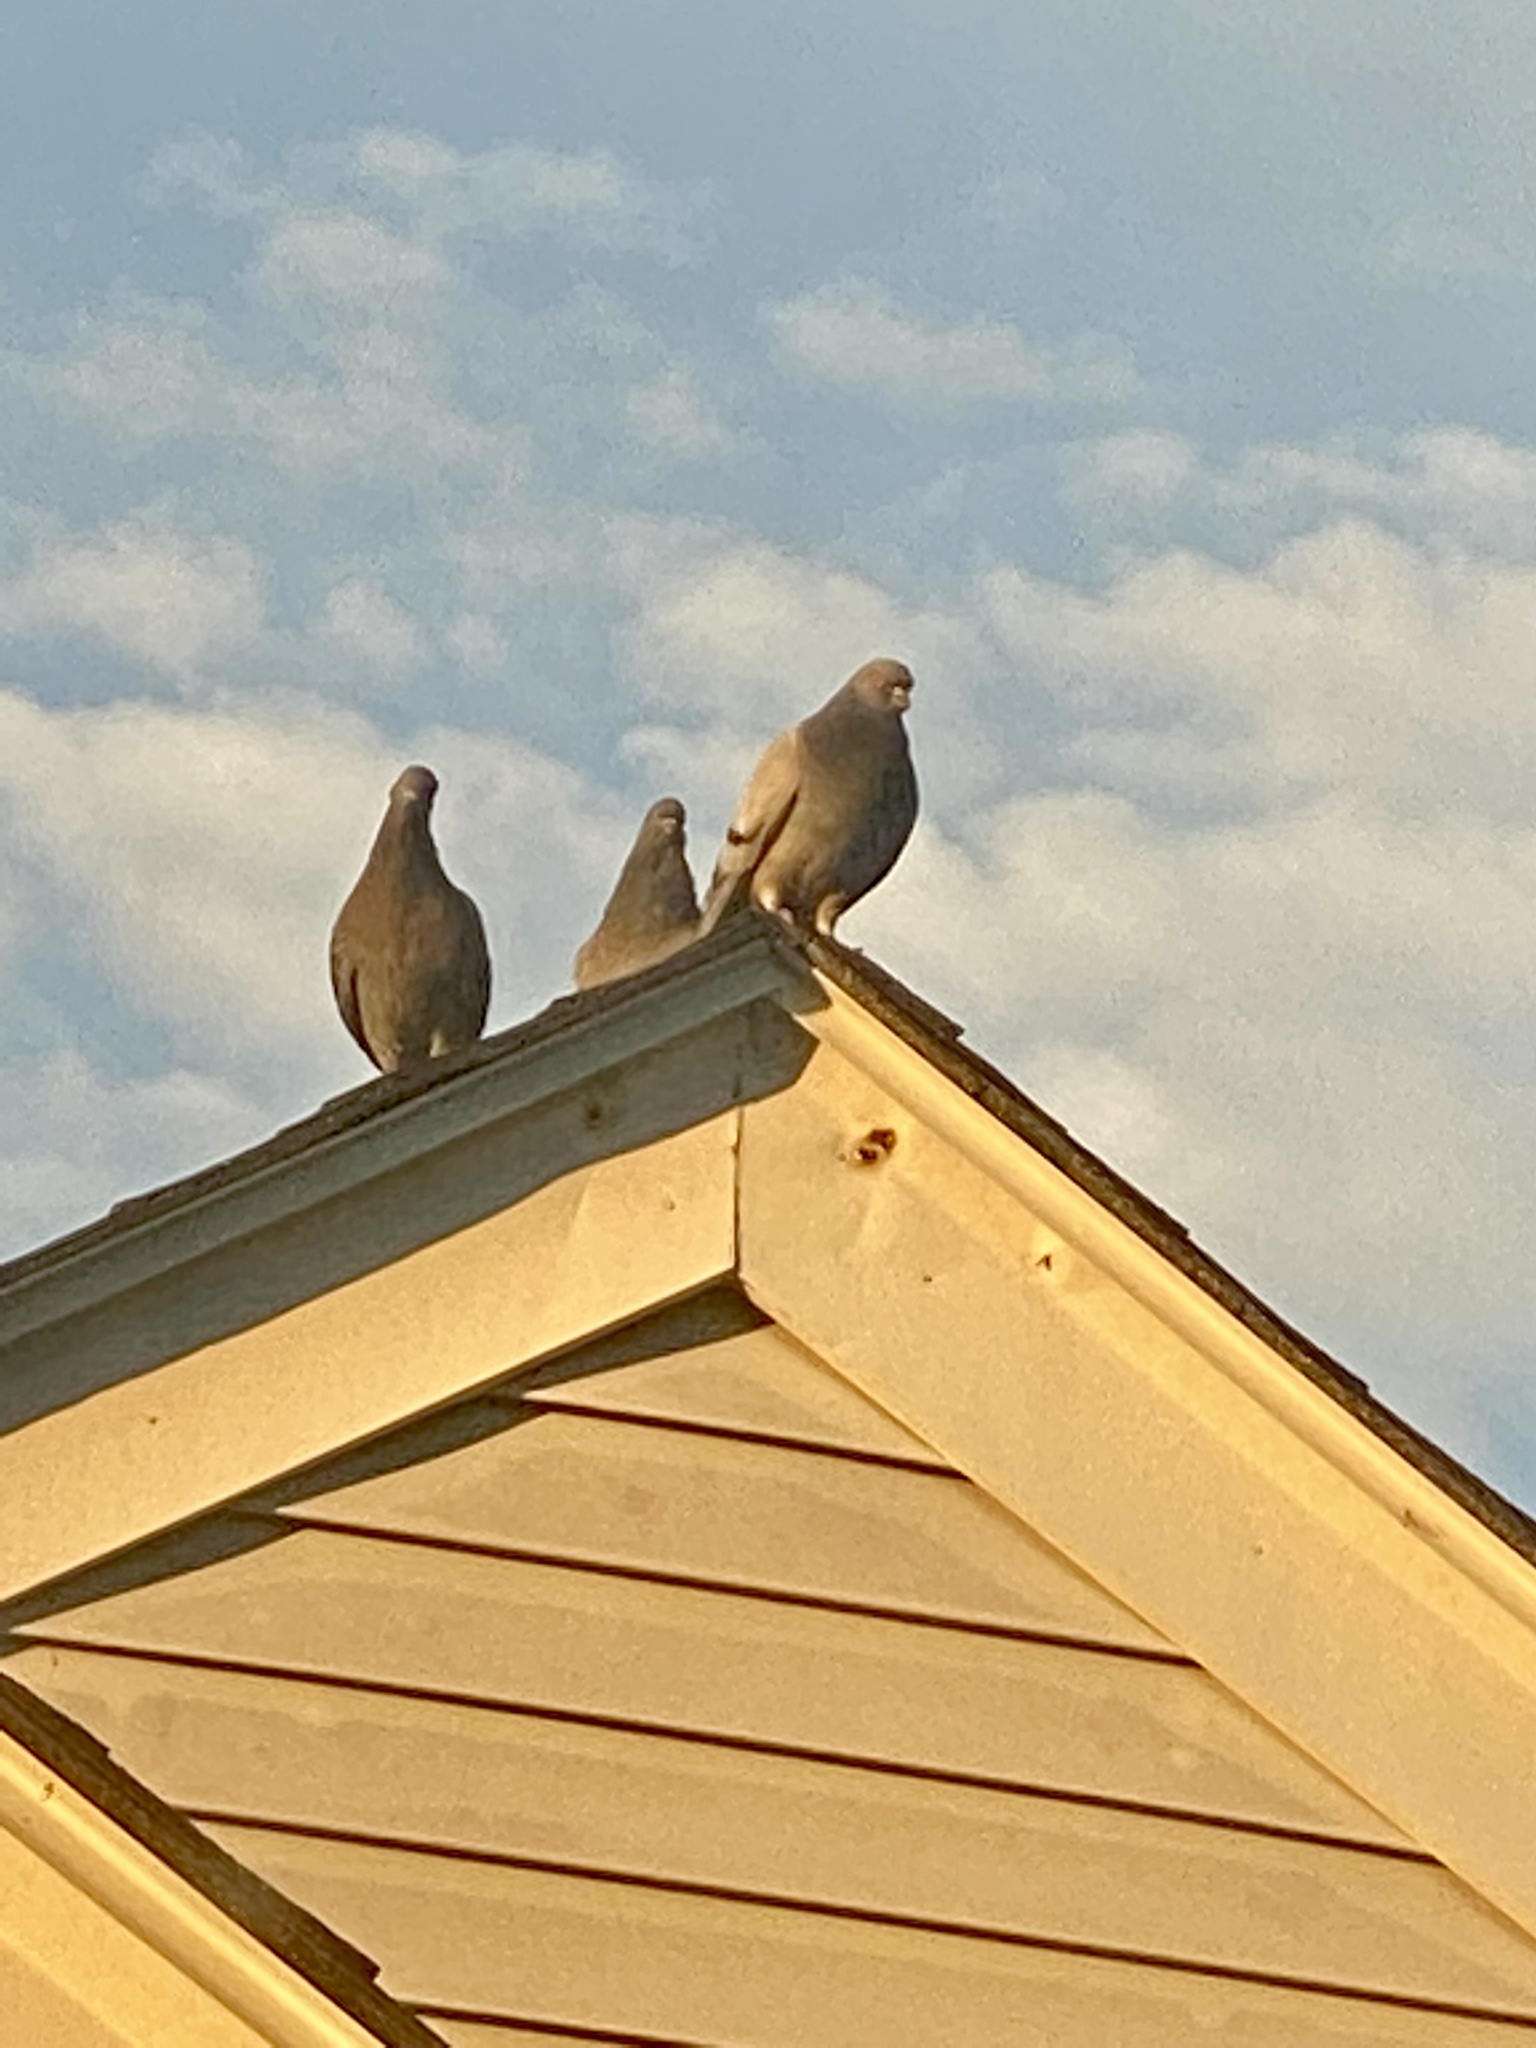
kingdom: Animalia
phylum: Chordata
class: Aves
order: Columbiformes
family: Columbidae
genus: Columba
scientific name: Columba livia
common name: Rock pigeon
